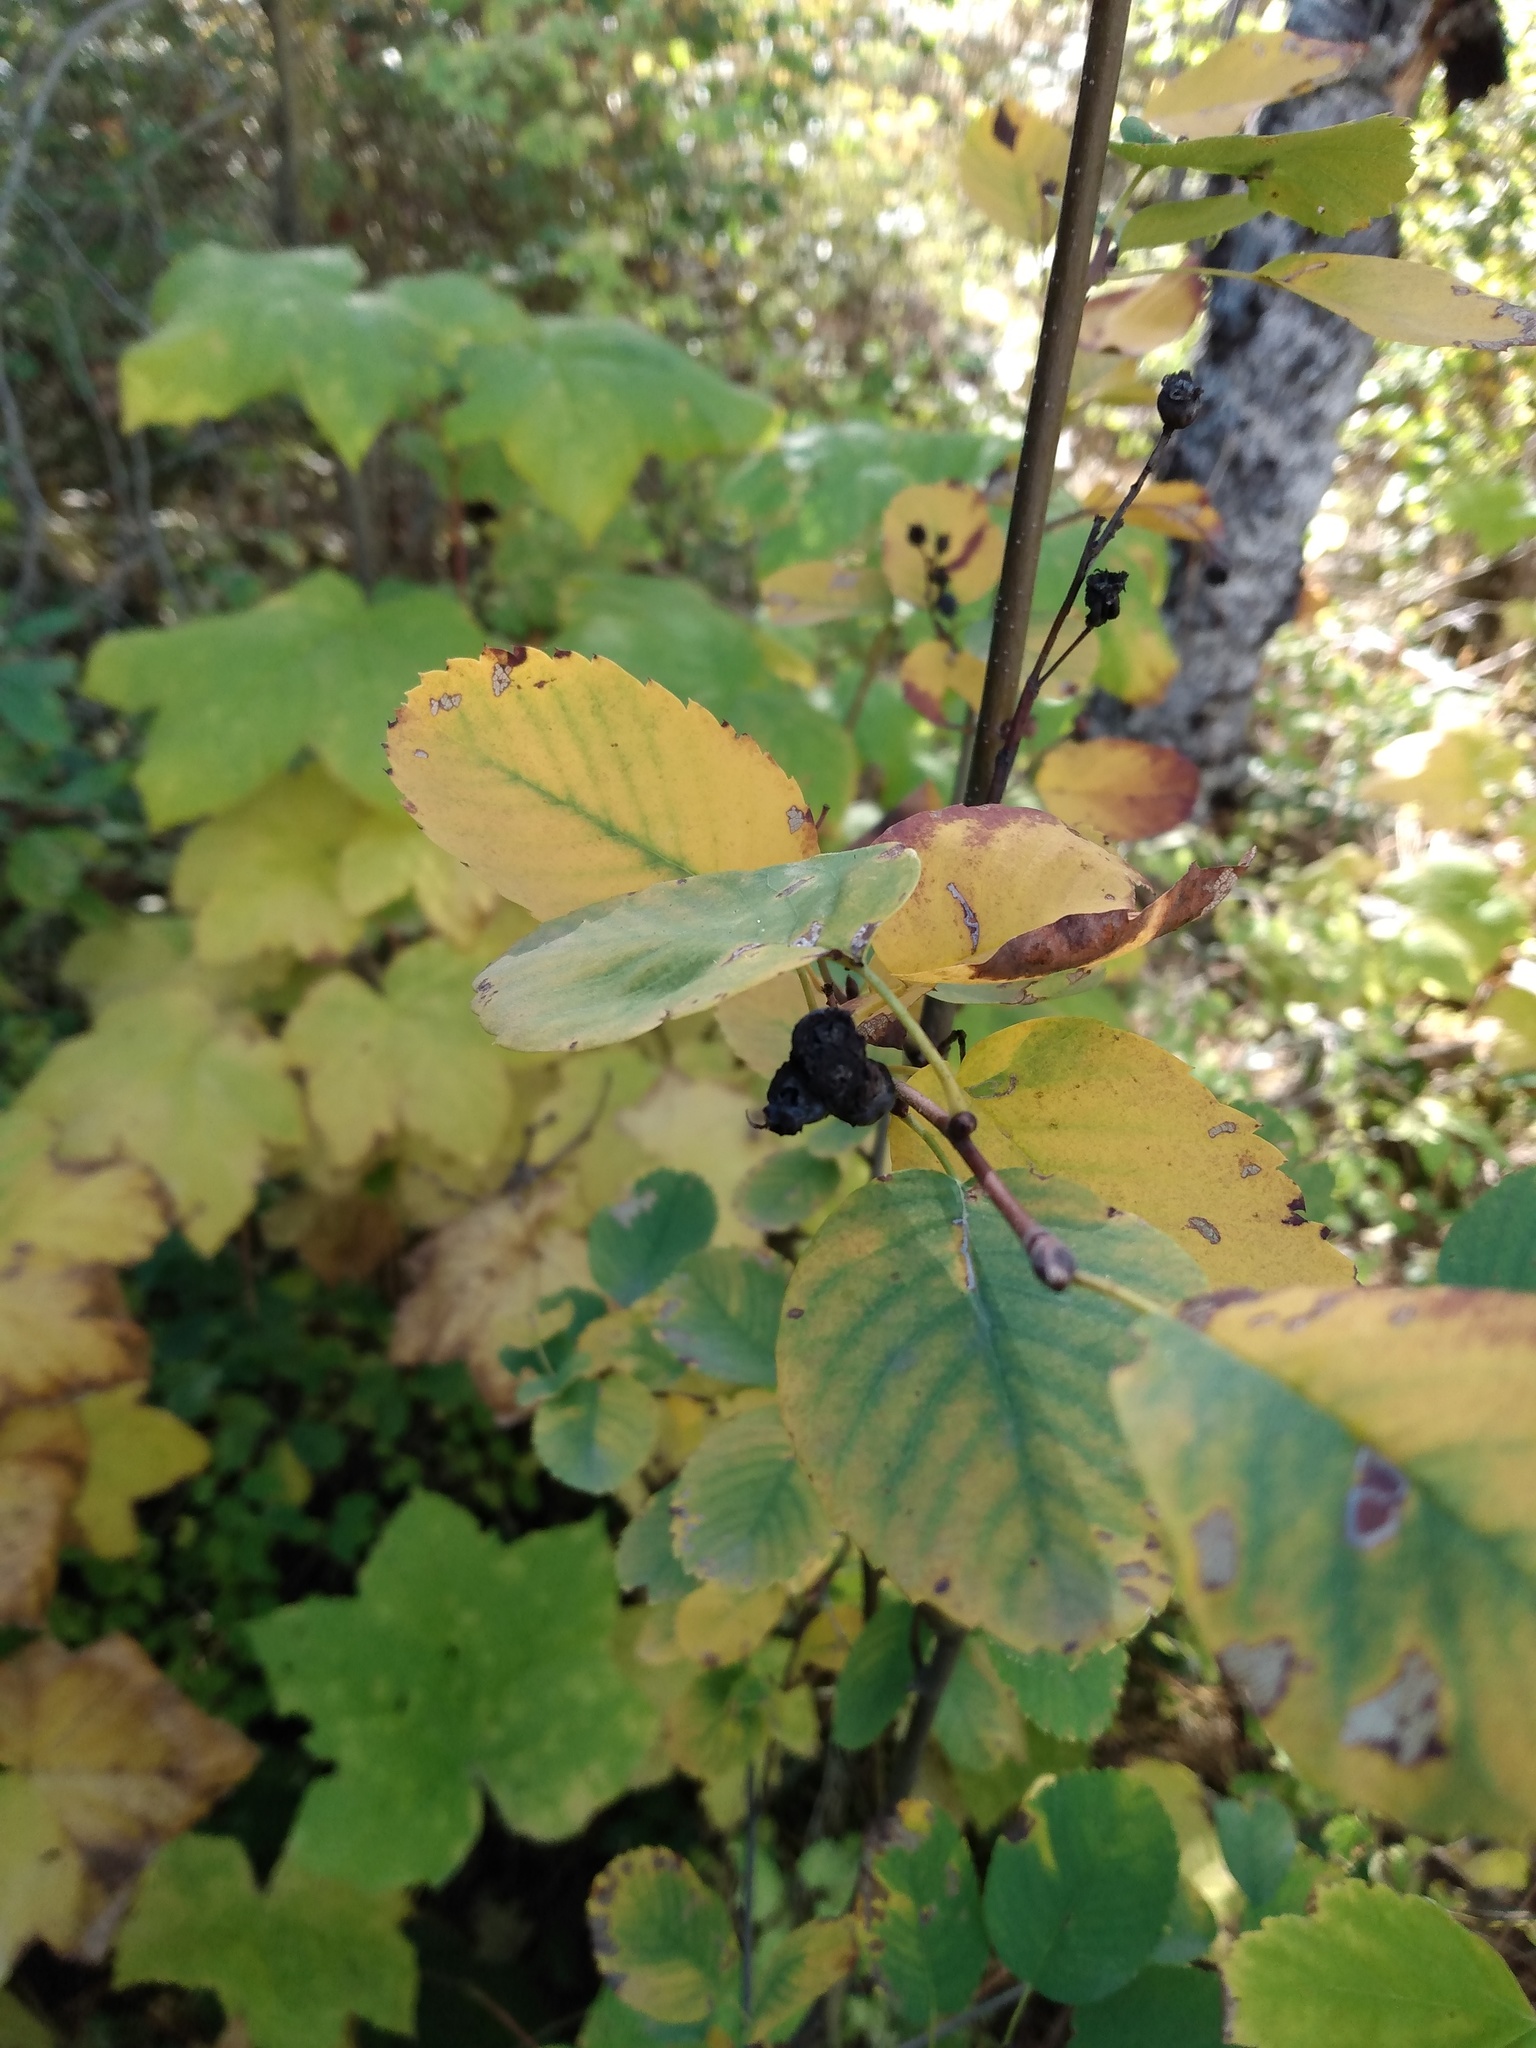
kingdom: Plantae
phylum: Tracheophyta
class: Magnoliopsida
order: Rosales
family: Rosaceae
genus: Amelanchier
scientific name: Amelanchier alnifolia
